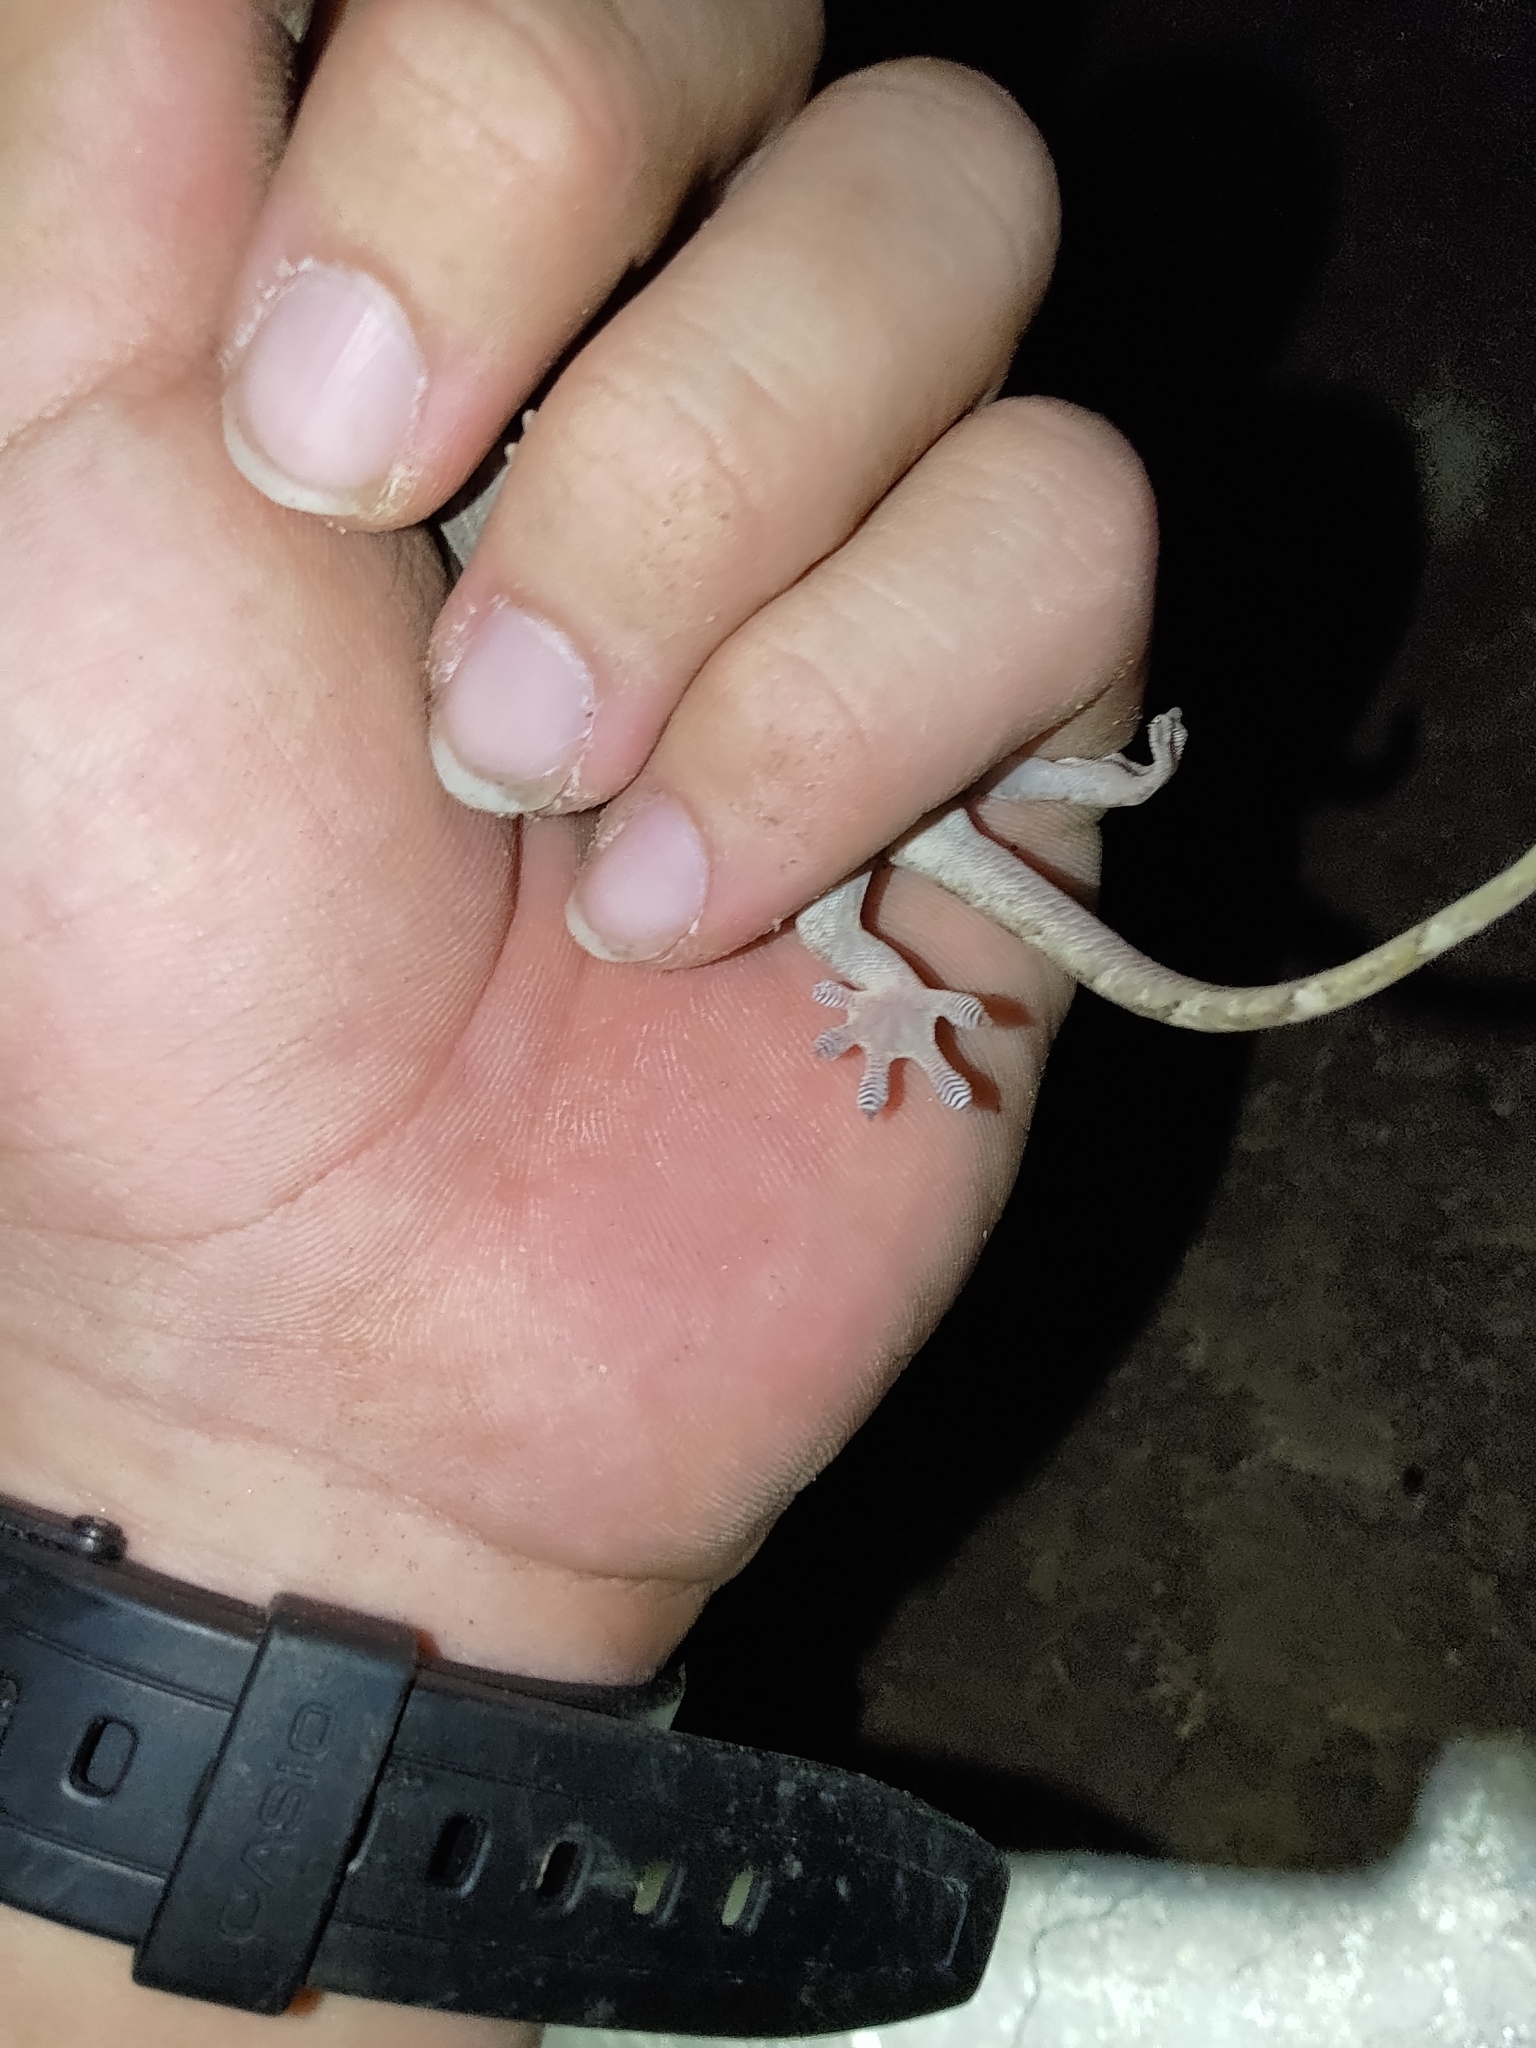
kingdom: Animalia
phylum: Chordata
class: Squamata
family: Gekkonidae
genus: Gekko
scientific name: Gekko hokouensis
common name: Kwangsi gecko
